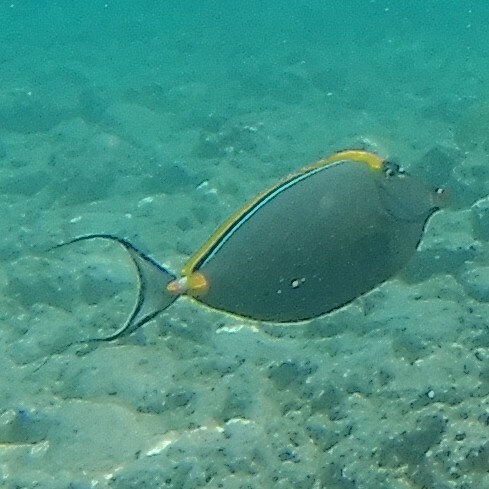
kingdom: Animalia
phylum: Chordata
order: Perciformes
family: Acanthuridae
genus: Naso
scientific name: Naso elegans
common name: Orangespine unicornfish
